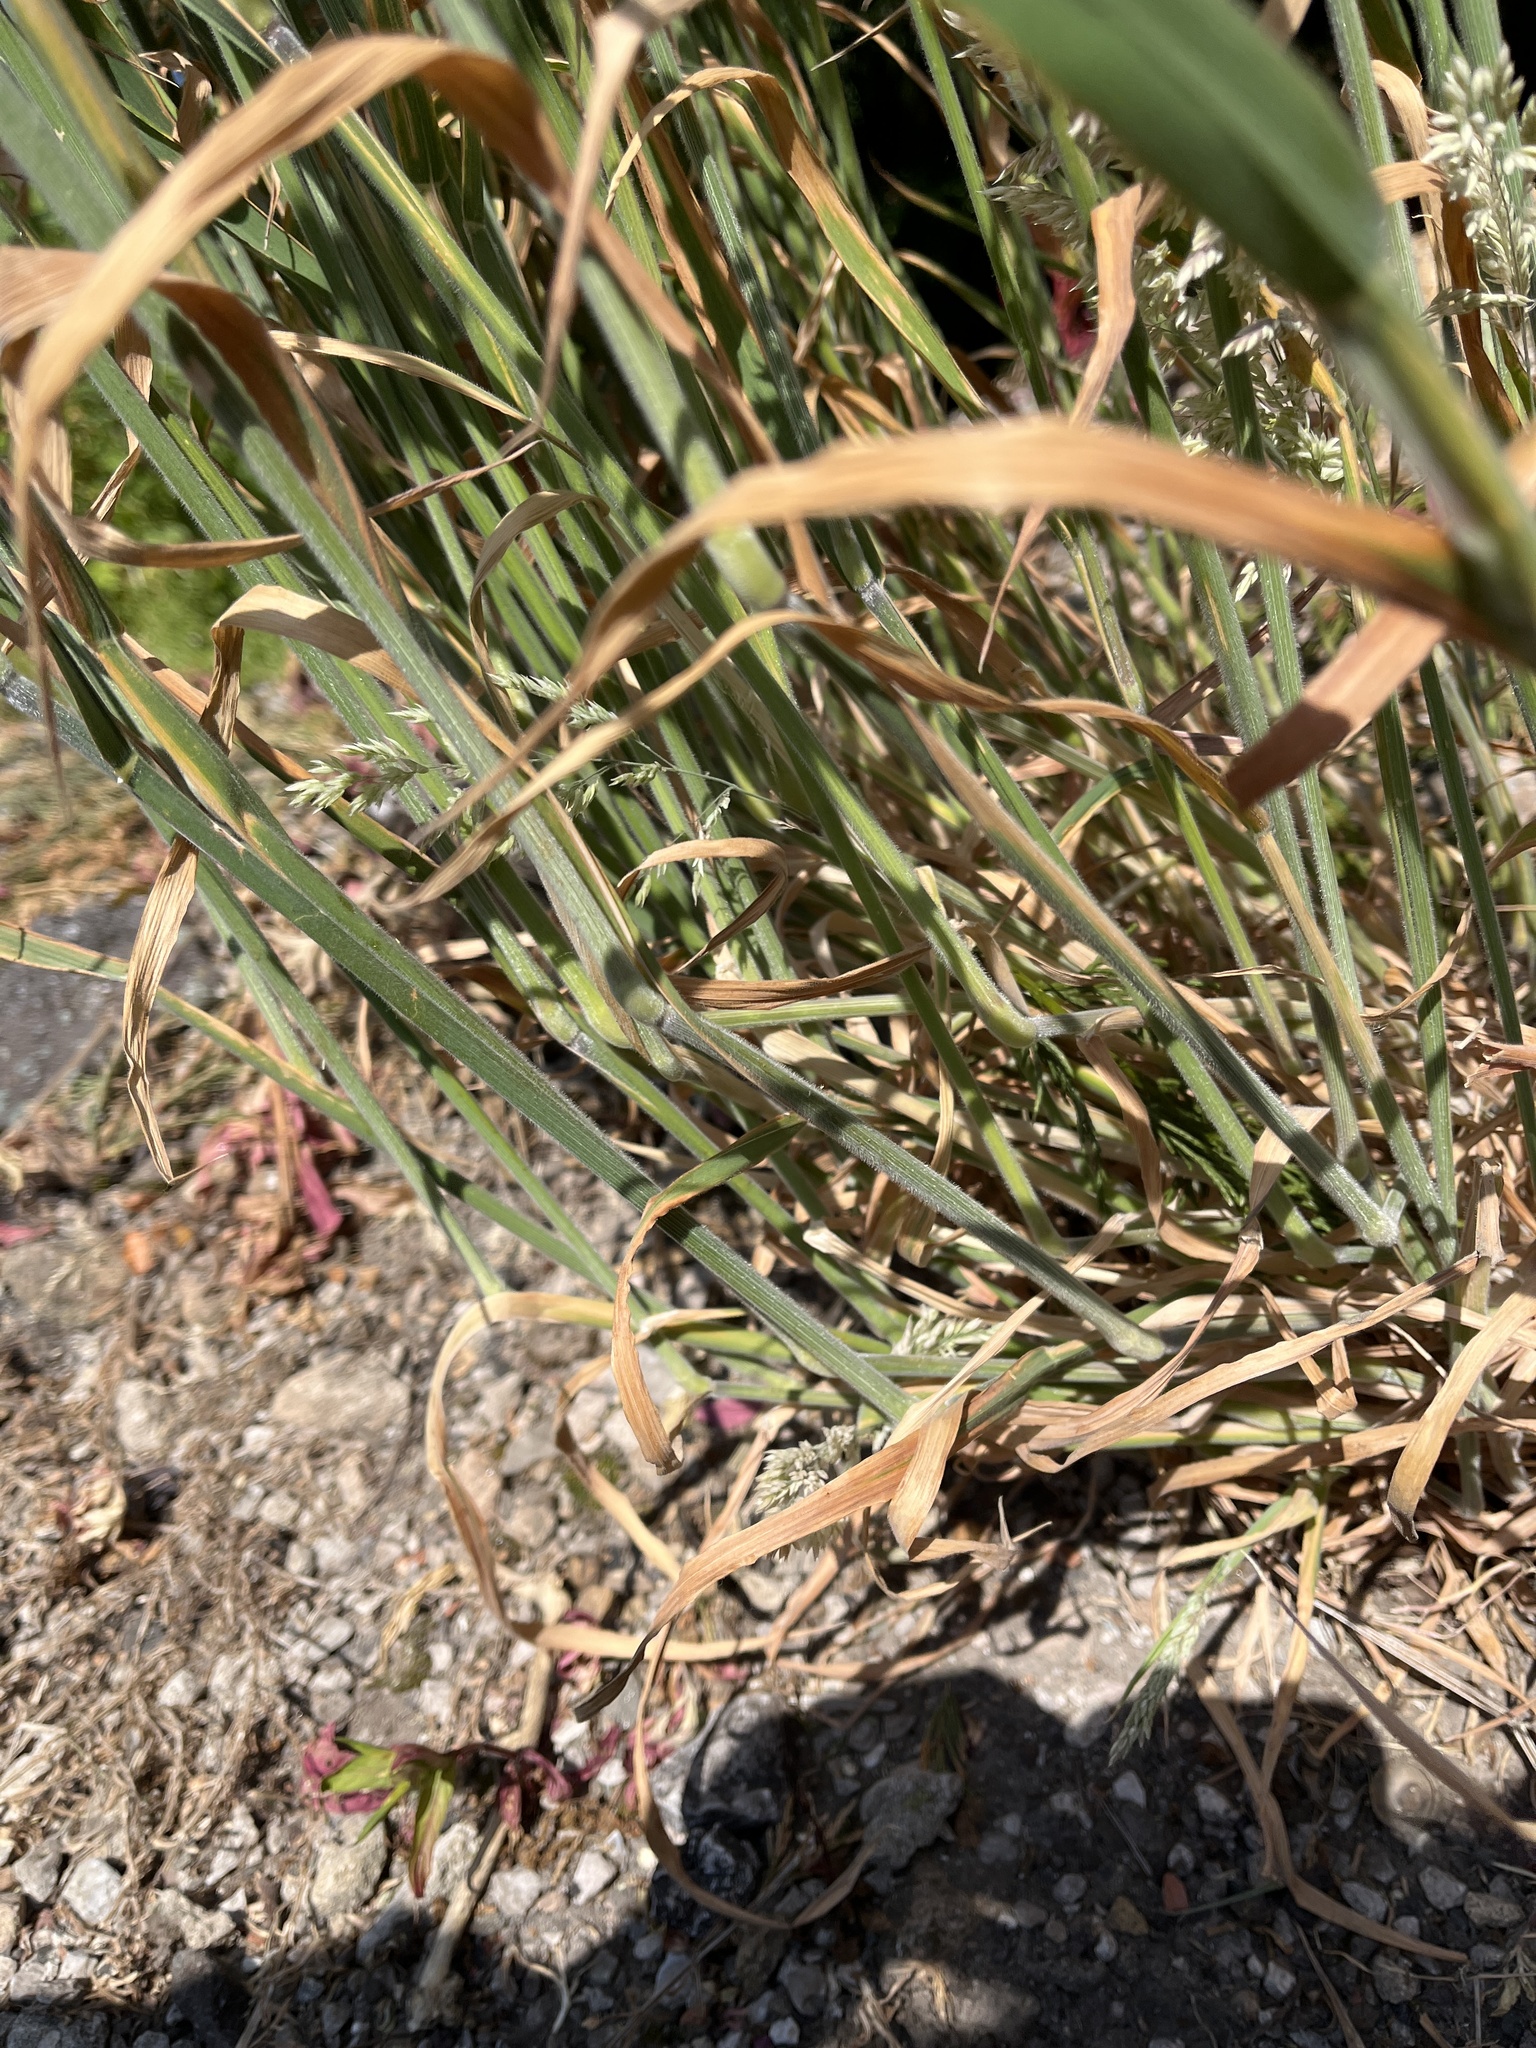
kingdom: Plantae
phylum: Tracheophyta
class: Liliopsida
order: Poales
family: Poaceae
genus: Holcus
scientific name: Holcus lanatus
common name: Yorkshire-fog
